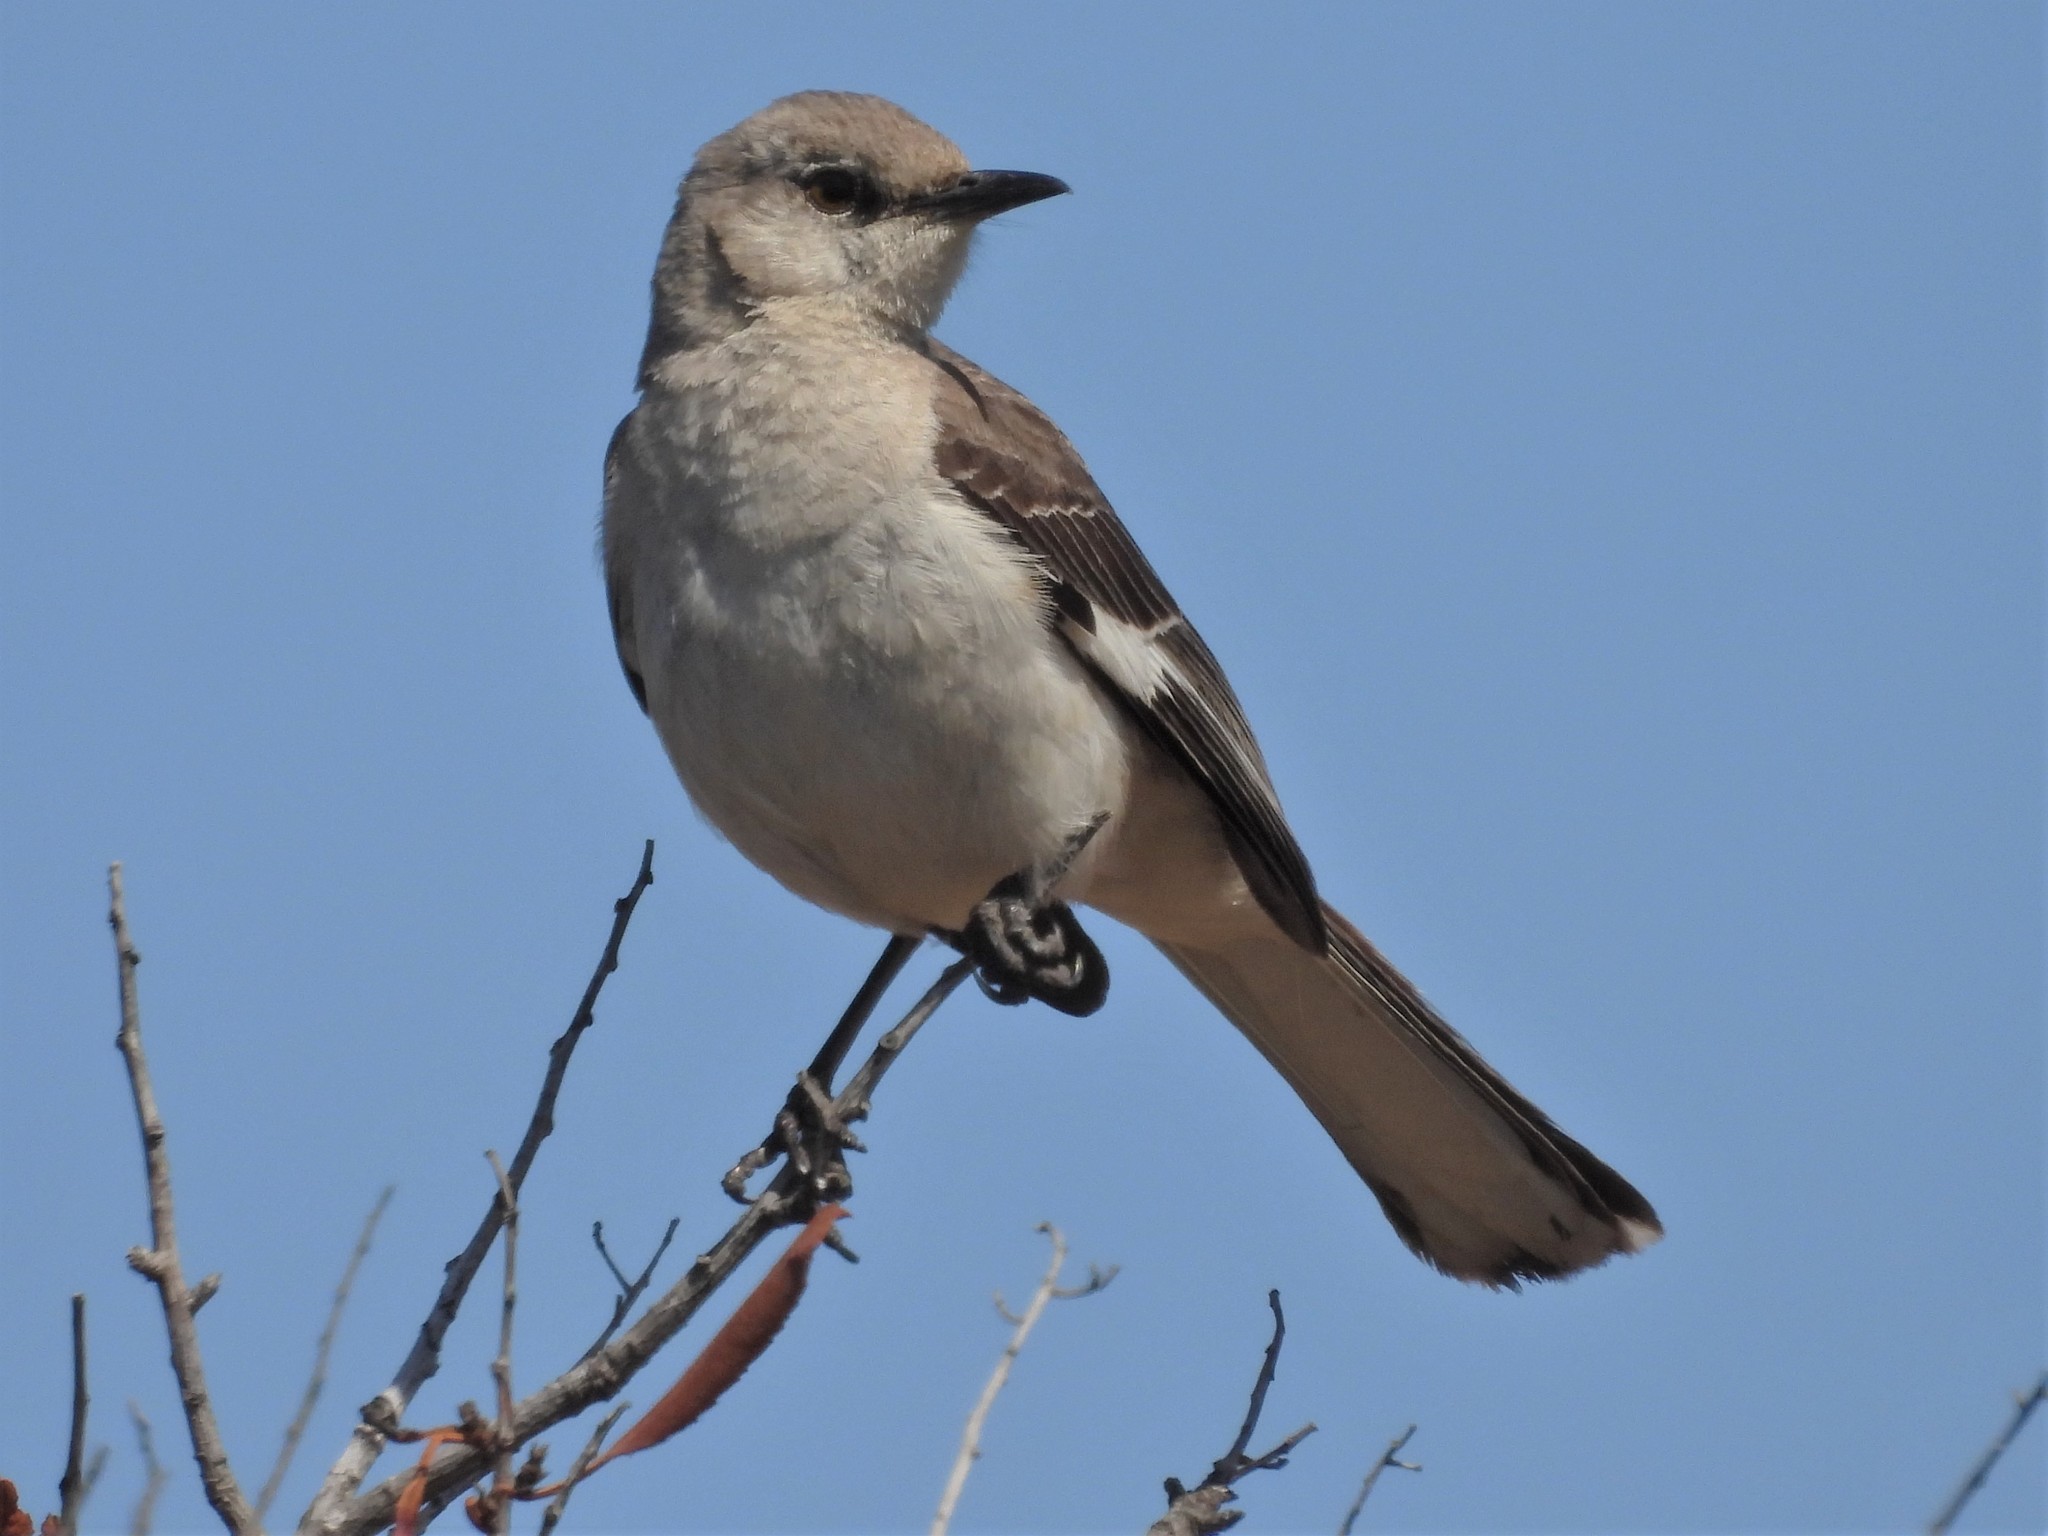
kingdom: Animalia
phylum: Chordata
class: Aves
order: Passeriformes
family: Mimidae
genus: Mimus
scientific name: Mimus polyglottos
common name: Northern mockingbird
